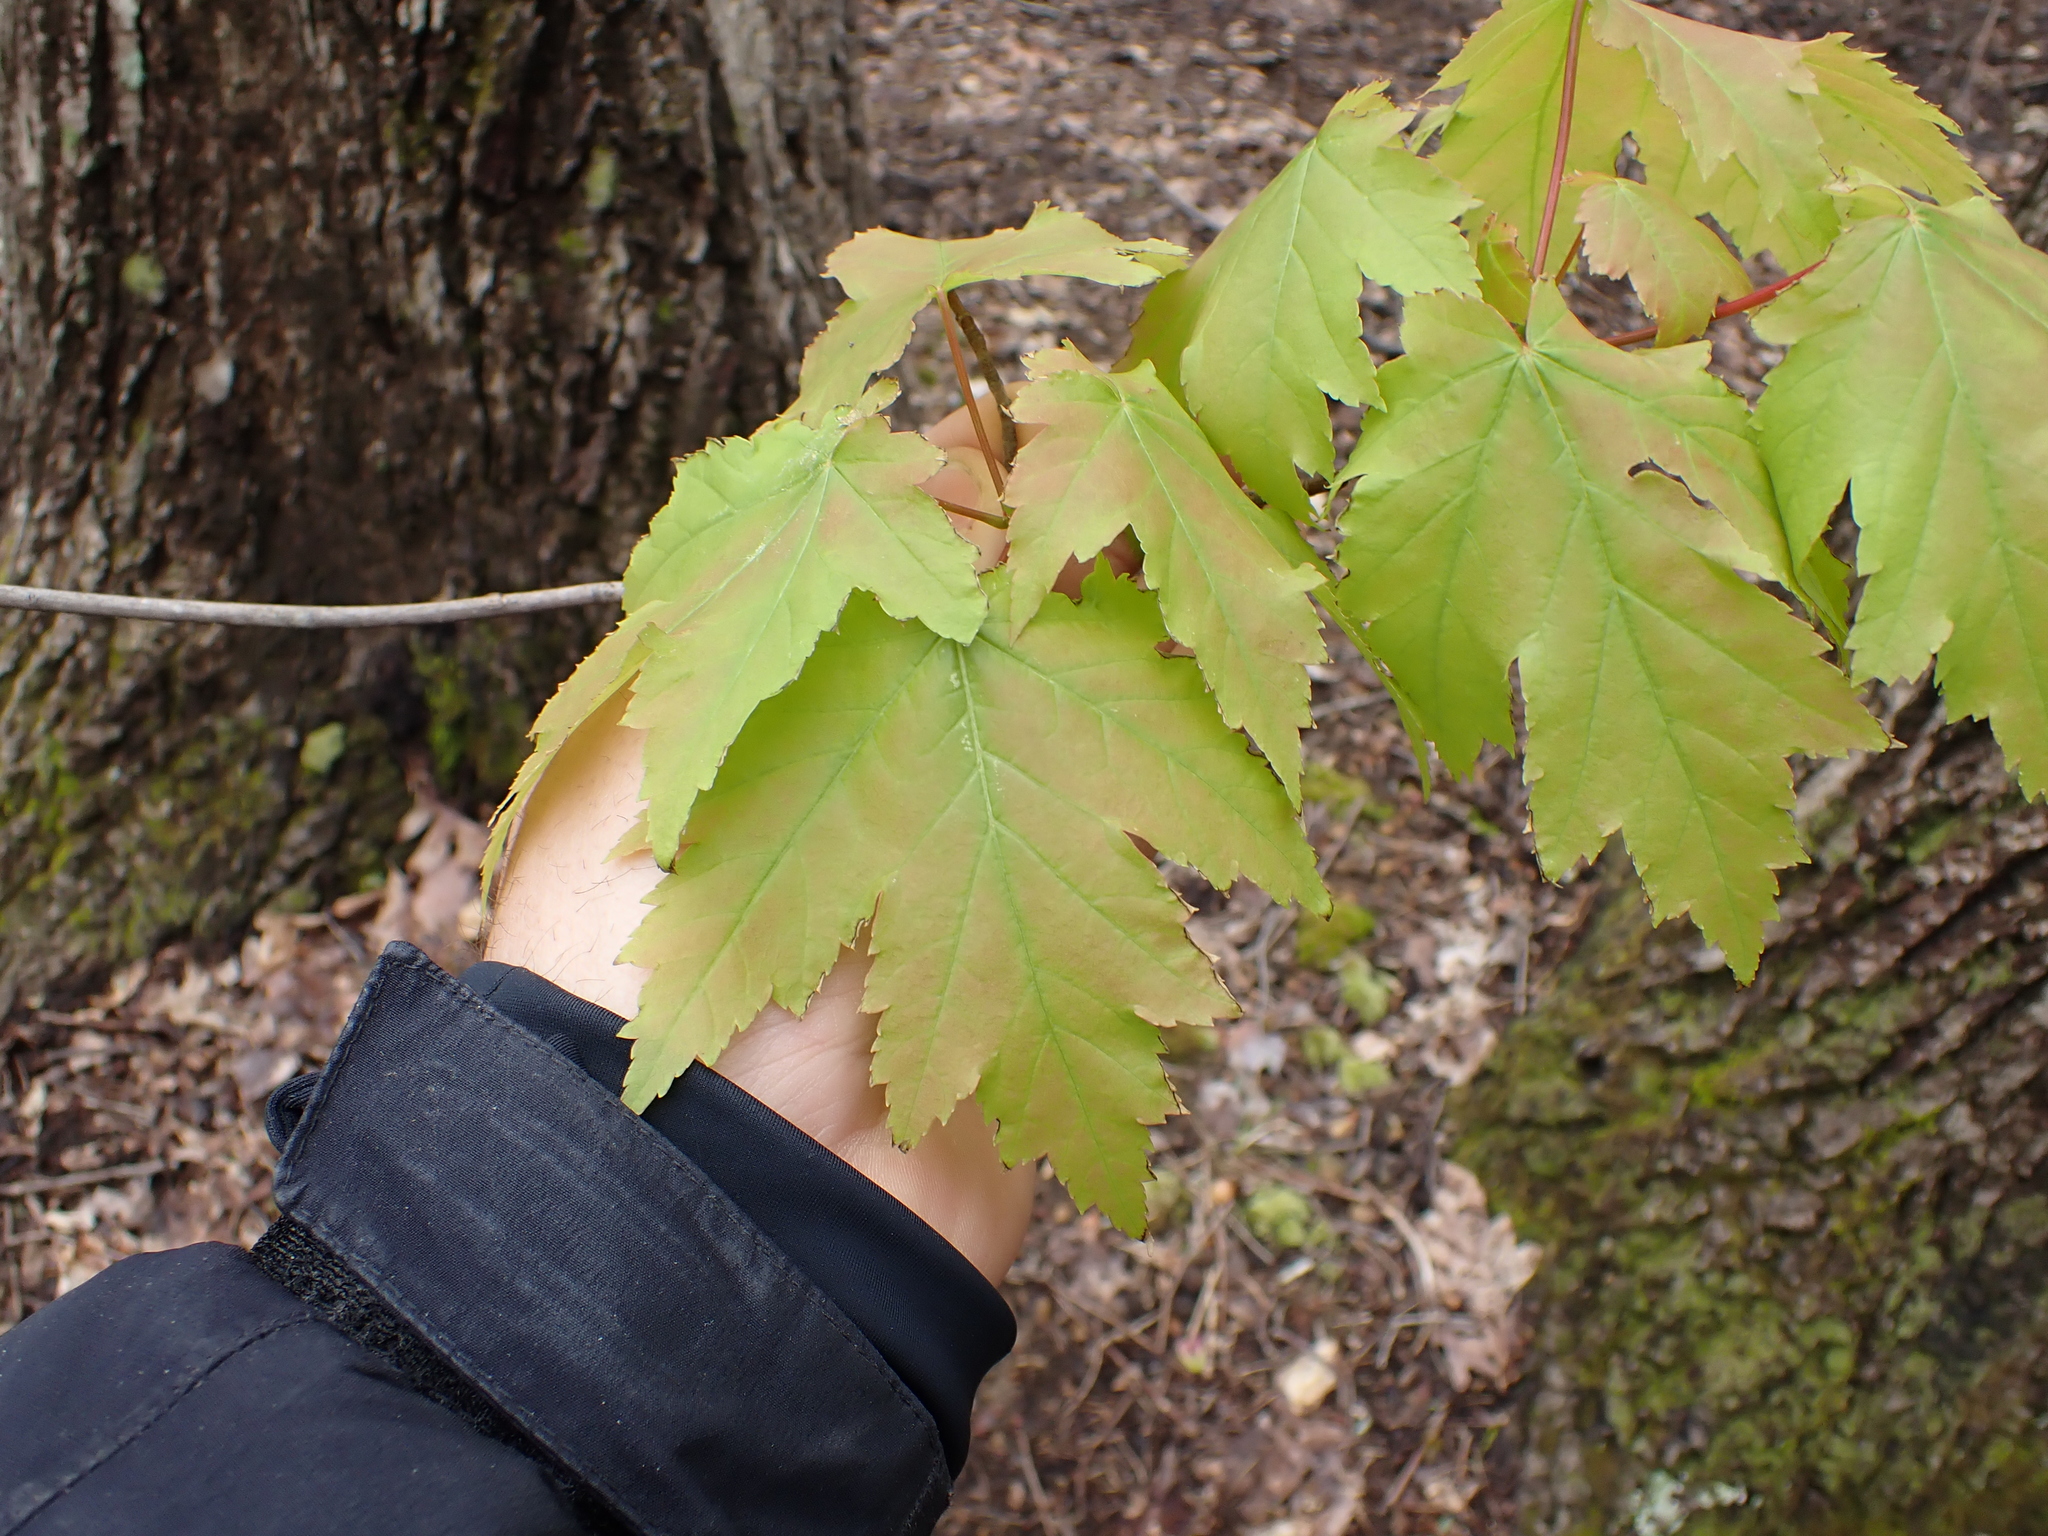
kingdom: Plantae
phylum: Tracheophyta
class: Magnoliopsida
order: Sapindales
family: Sapindaceae
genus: Acer
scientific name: Acer rubrum
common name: Red maple
